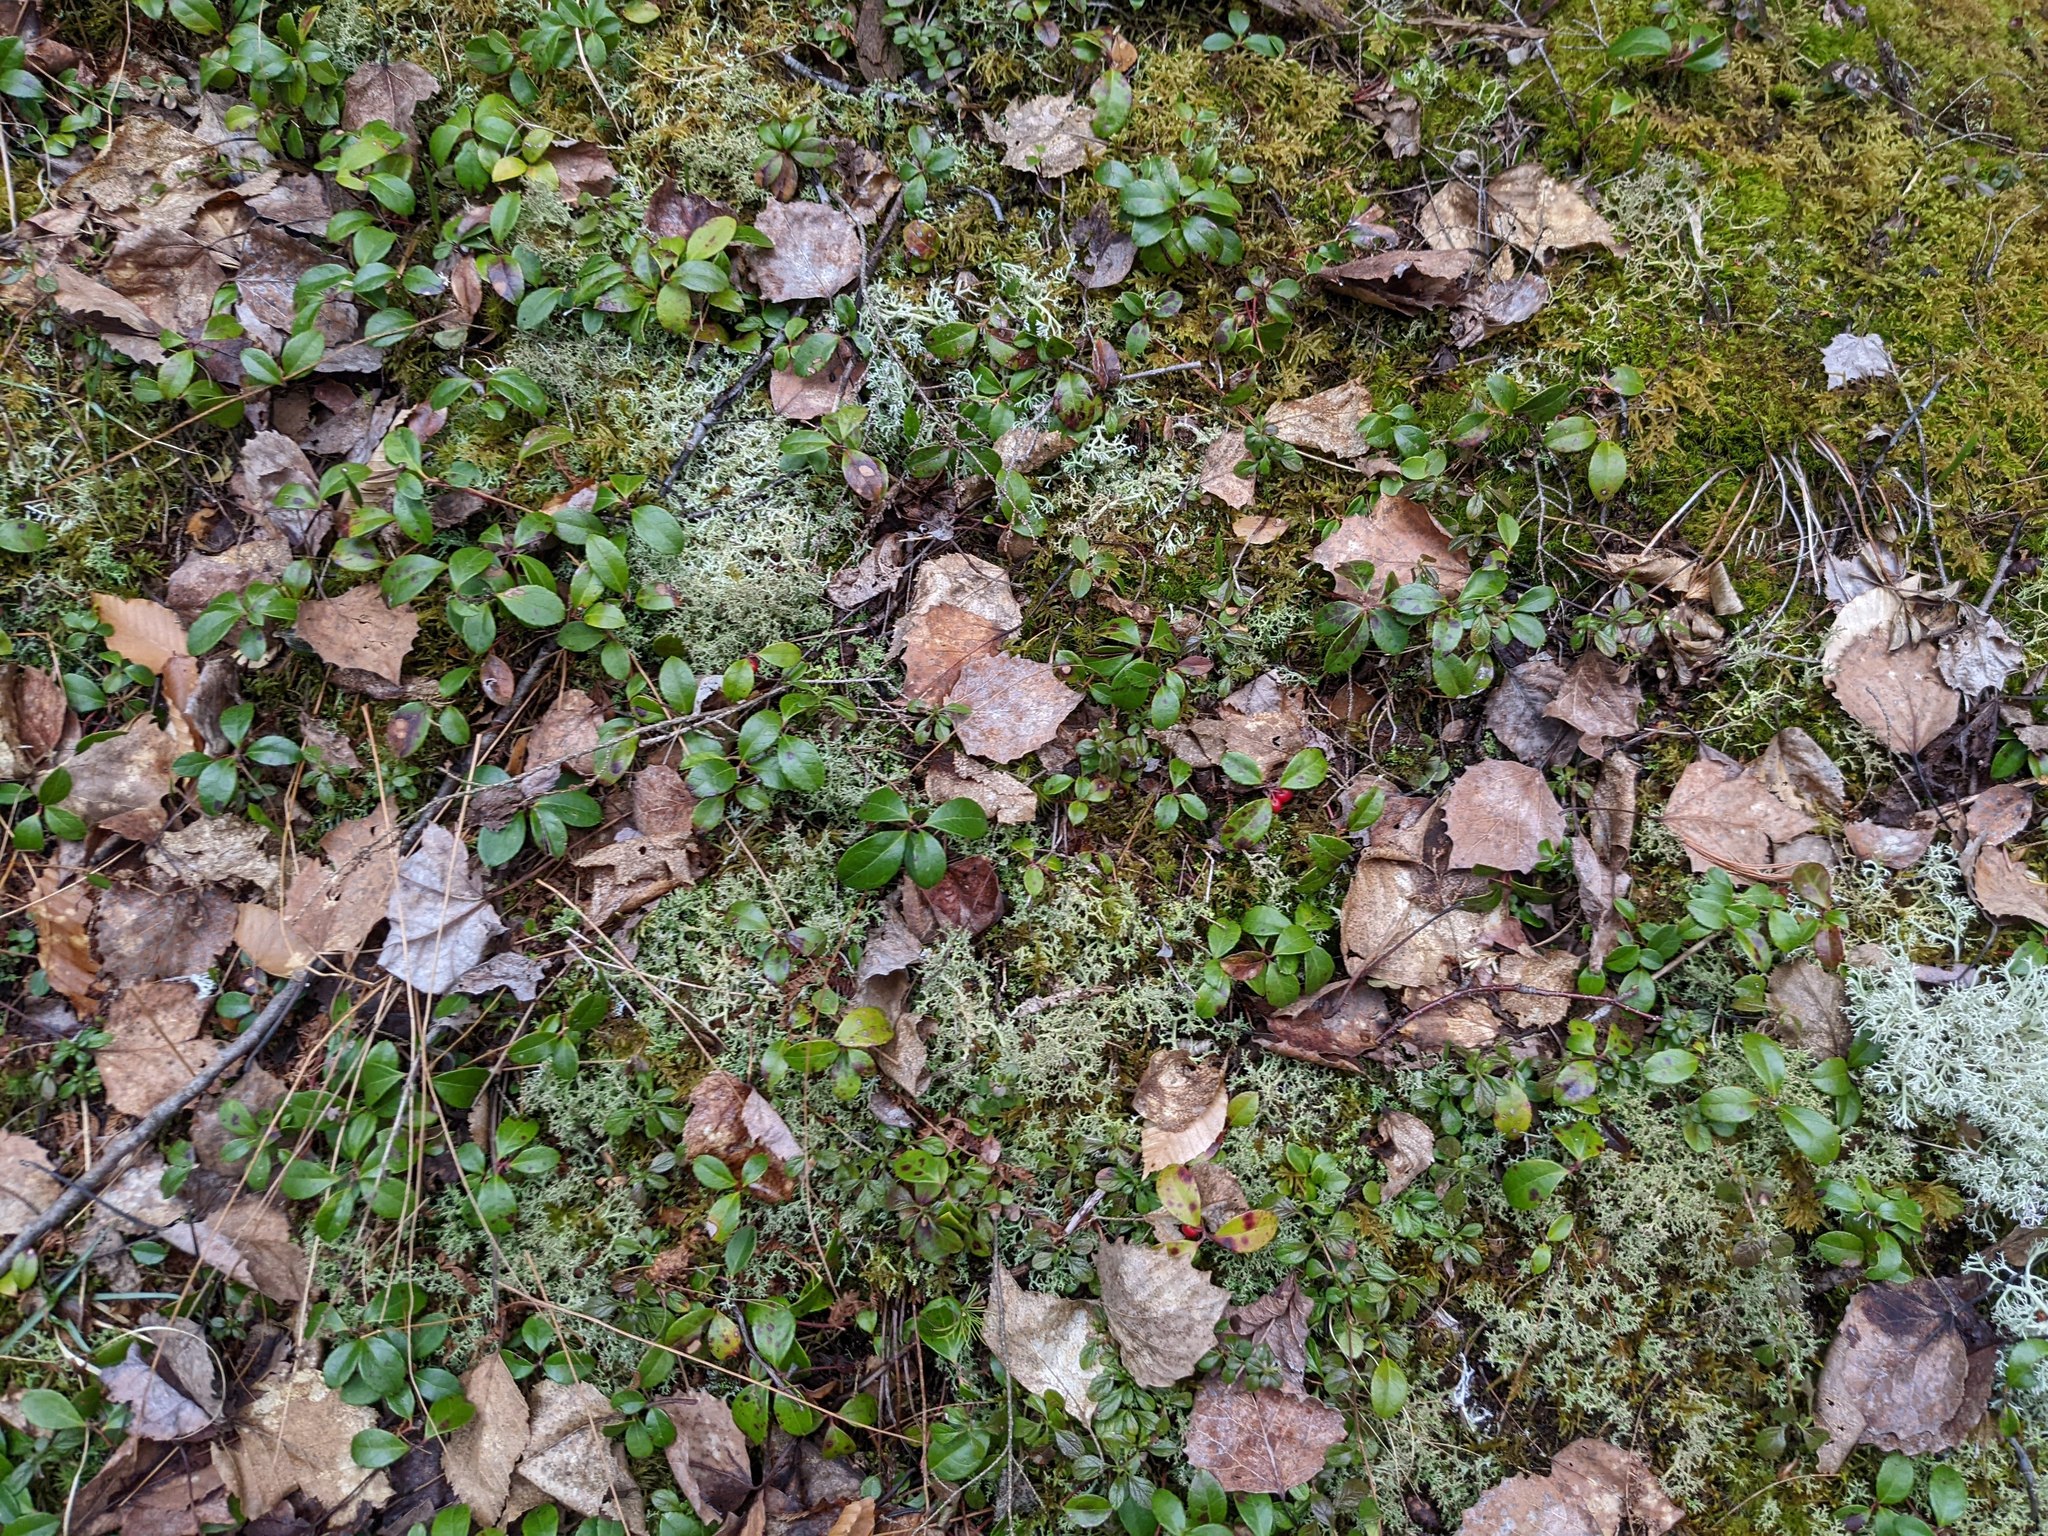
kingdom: Plantae
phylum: Tracheophyta
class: Magnoliopsida
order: Ericales
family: Ericaceae
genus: Gaultheria
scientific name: Gaultheria procumbens
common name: Checkerberry
